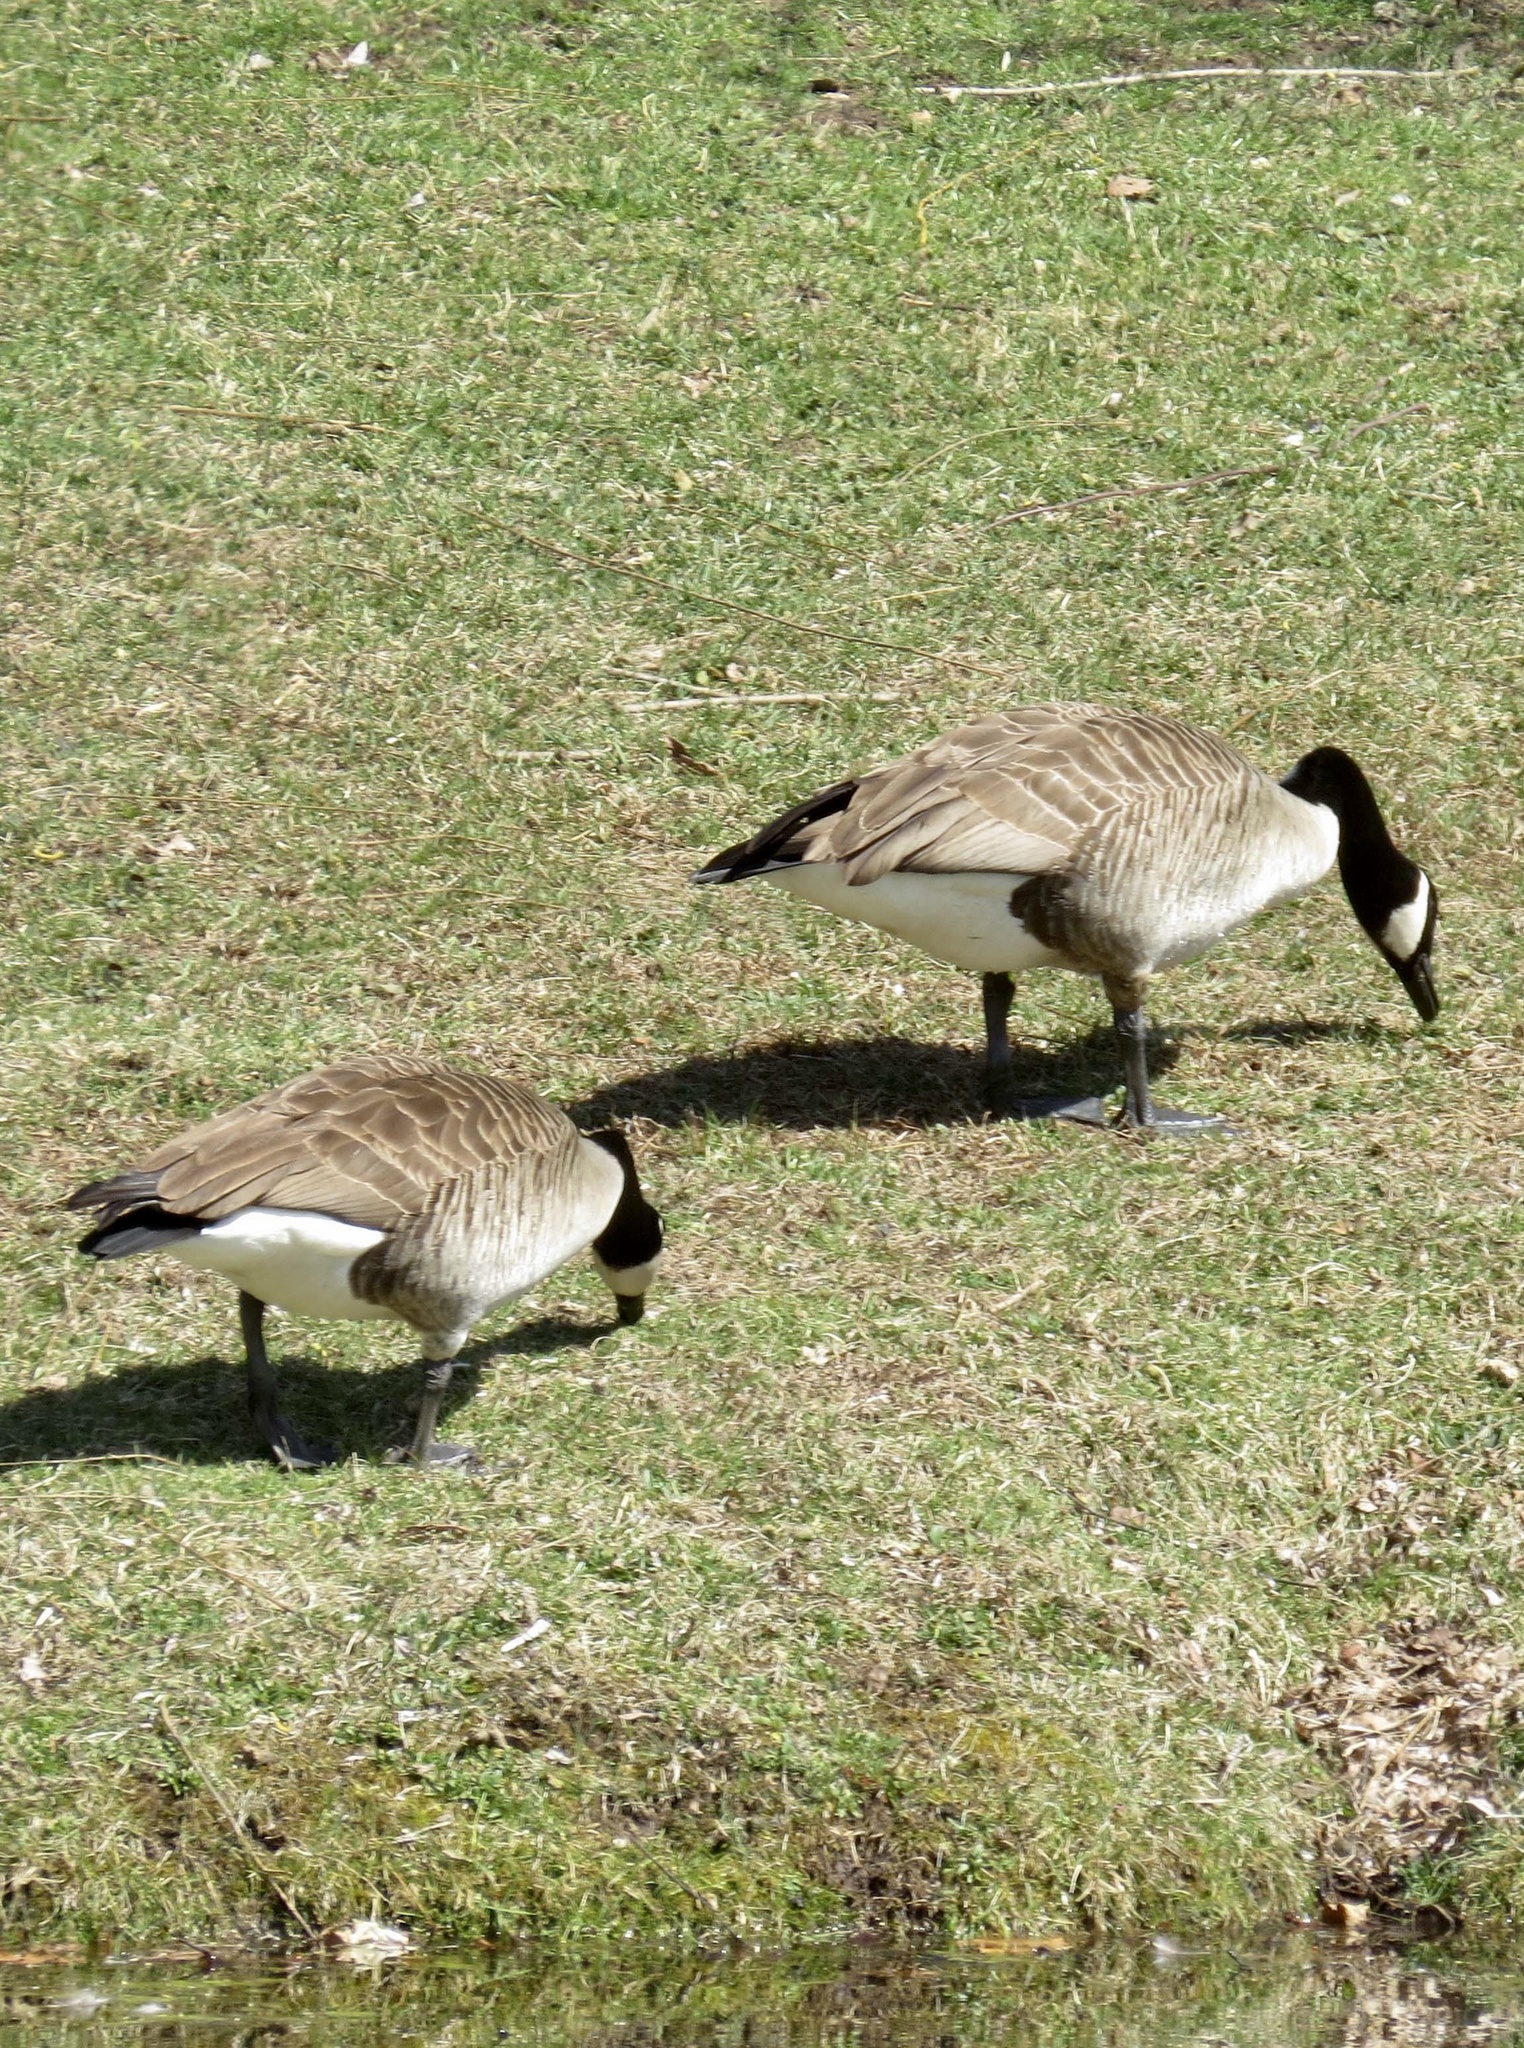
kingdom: Animalia
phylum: Chordata
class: Aves
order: Anseriformes
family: Anatidae
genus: Branta
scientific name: Branta canadensis
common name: Canada goose
